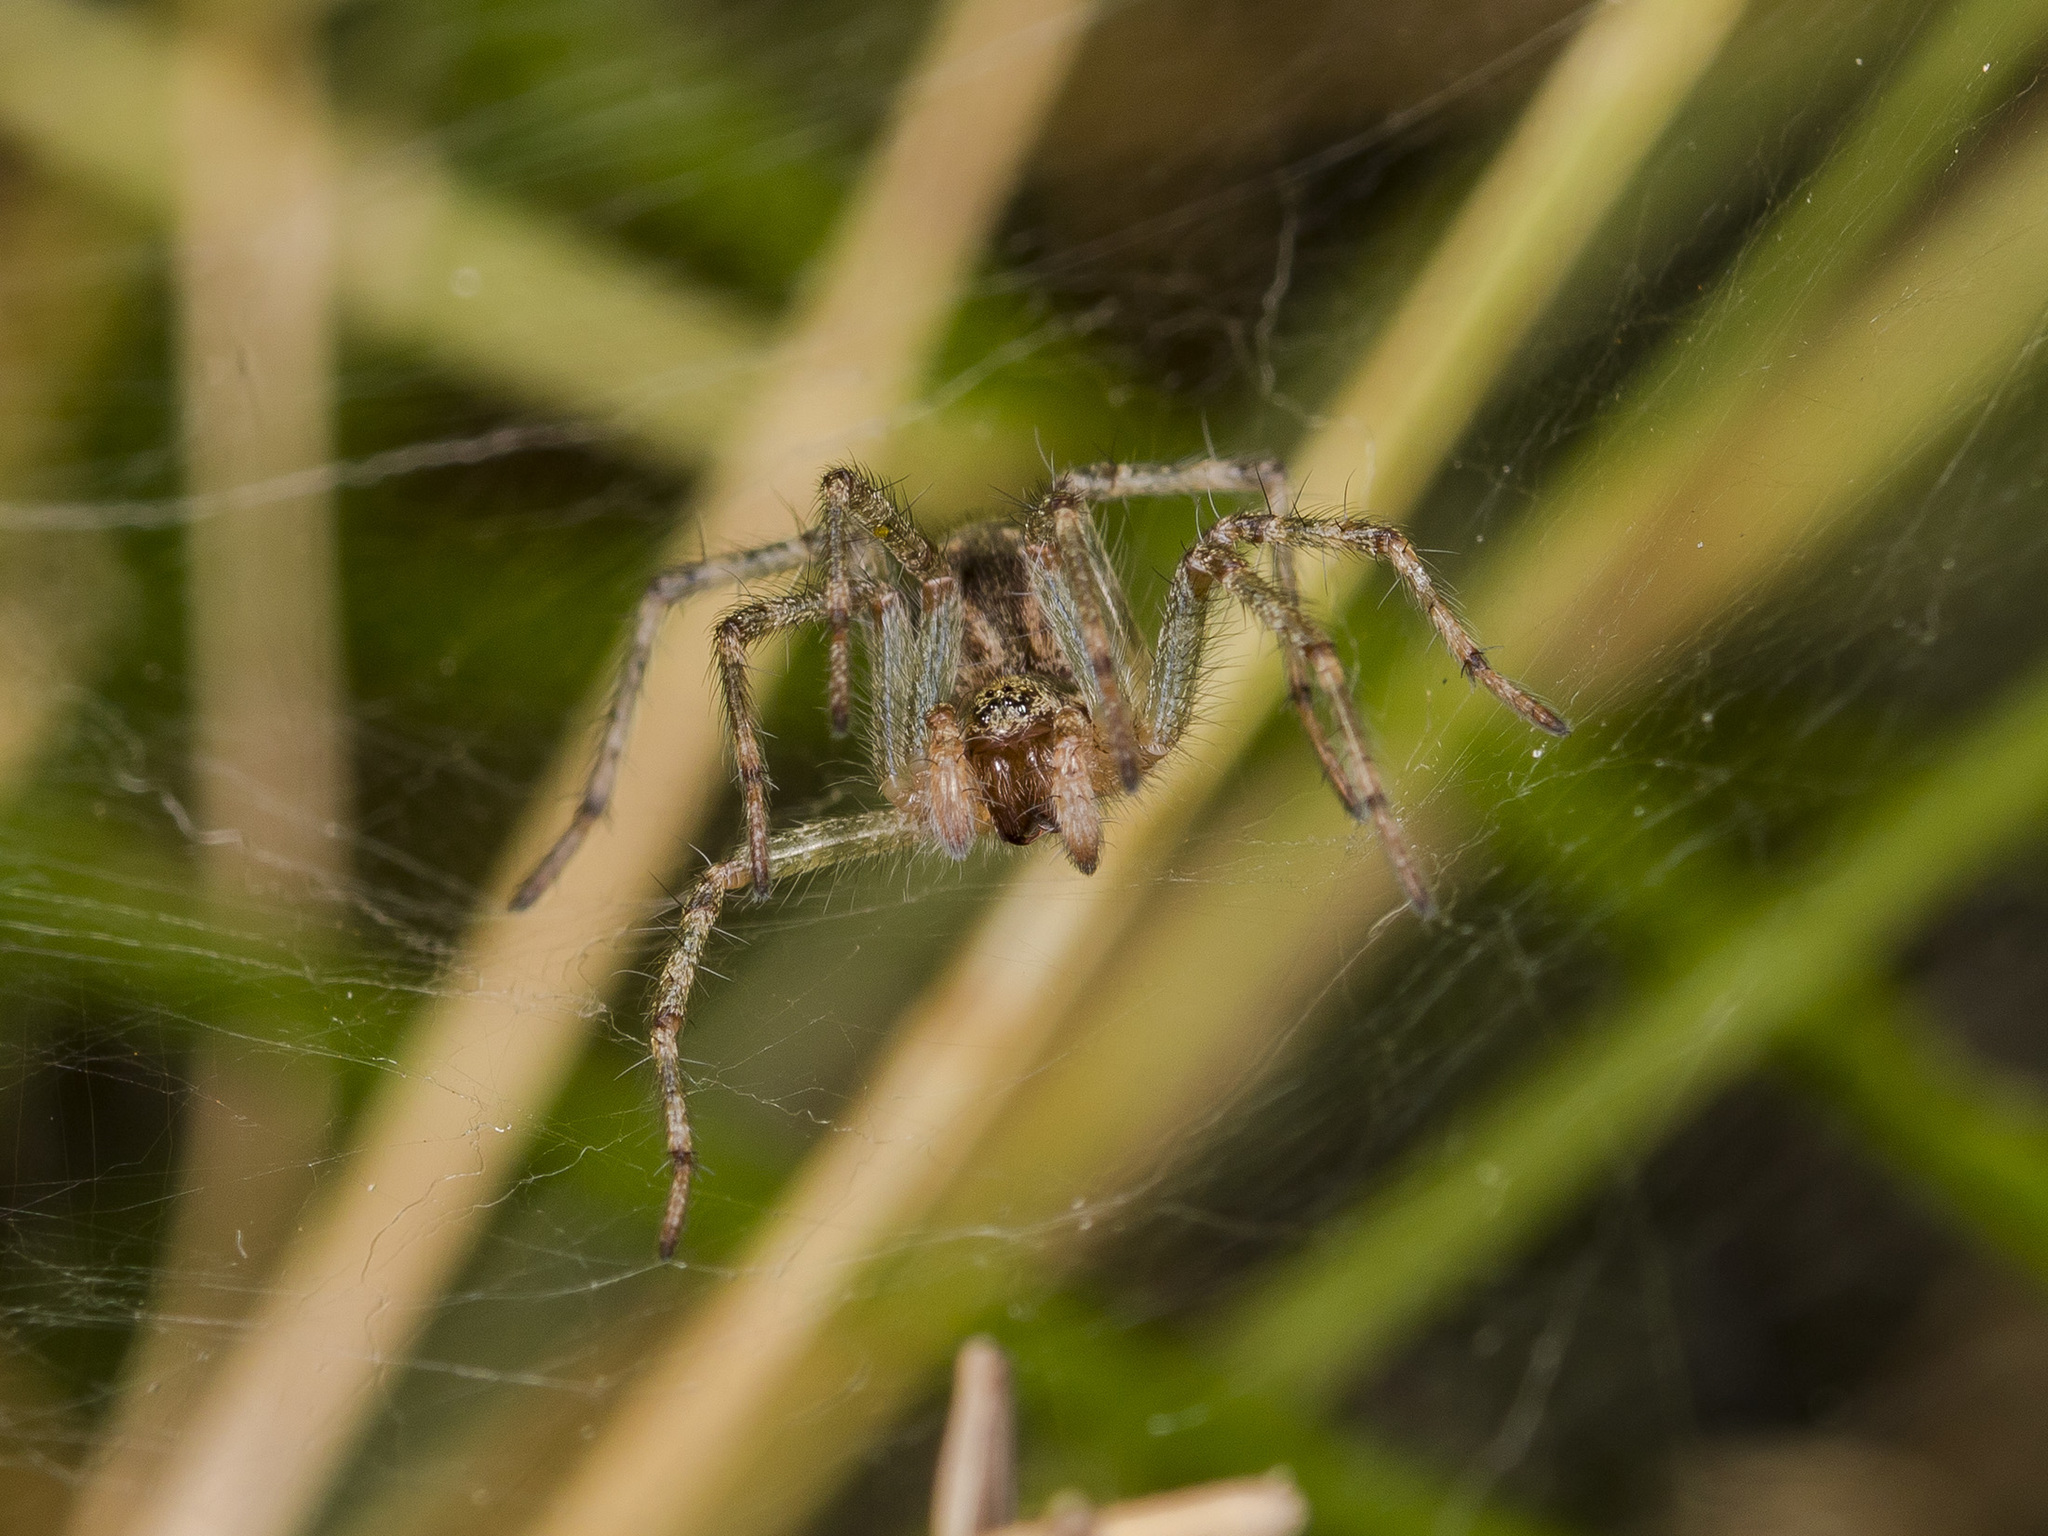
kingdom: Animalia
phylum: Arthropoda
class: Arachnida
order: Araneae
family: Agelenidae
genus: Allagelena
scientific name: Allagelena gracilens
